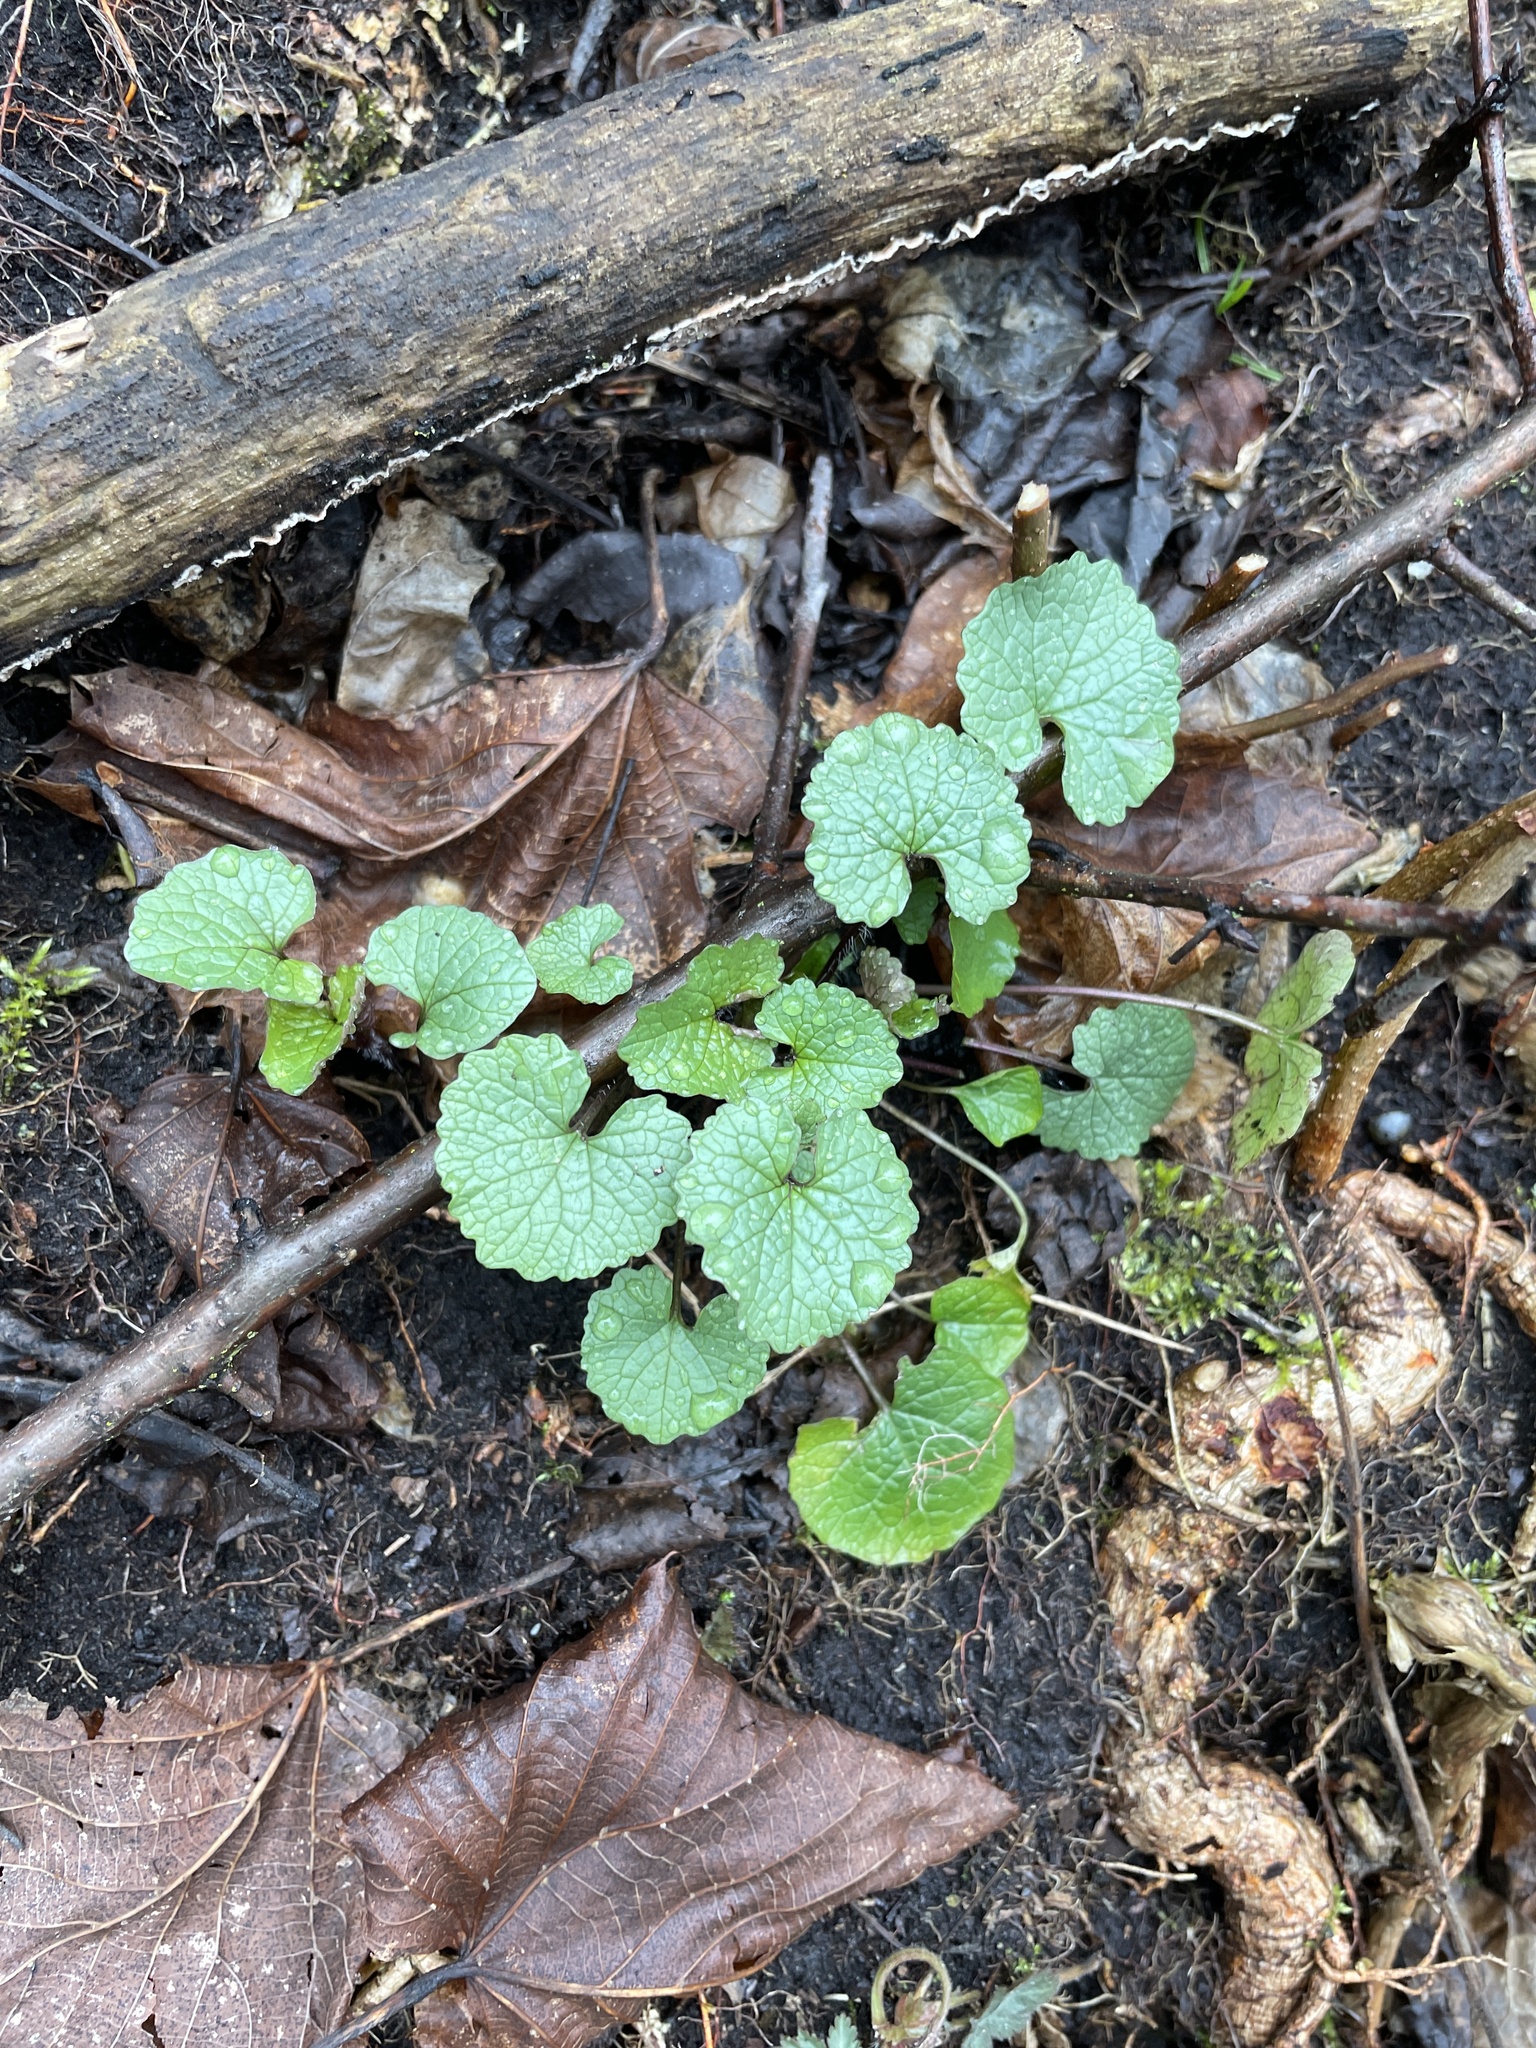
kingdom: Plantae
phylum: Tracheophyta
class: Magnoliopsida
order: Brassicales
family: Brassicaceae
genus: Alliaria
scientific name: Alliaria petiolata
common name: Garlic mustard
